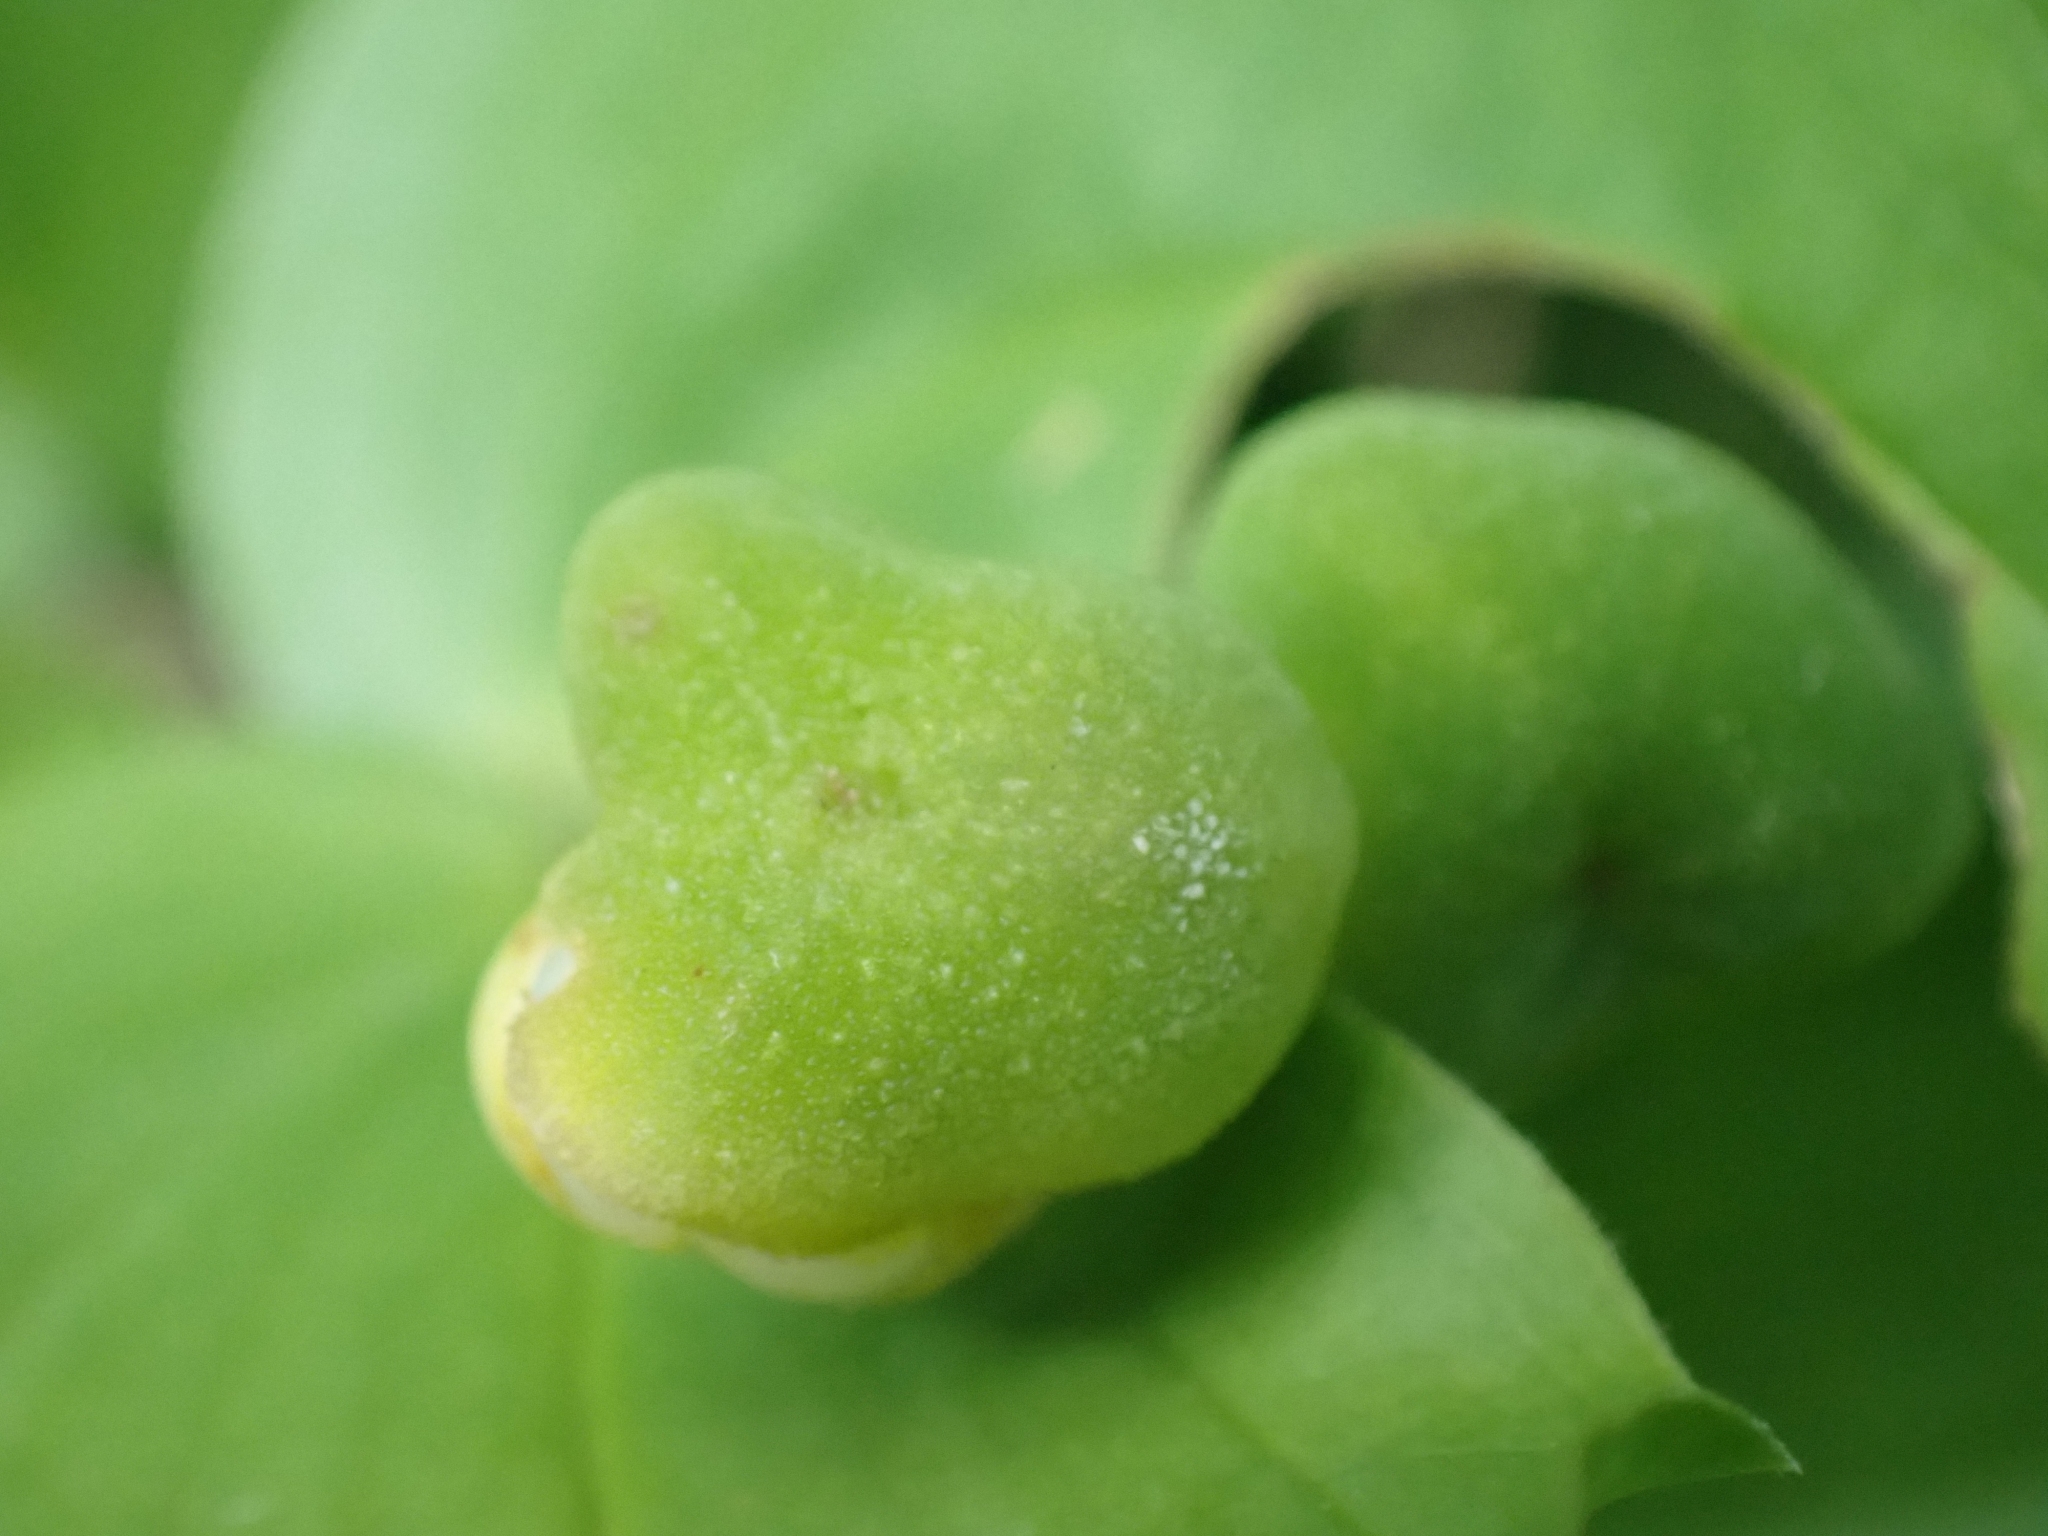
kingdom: Plantae
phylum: Tracheophyta
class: Liliopsida
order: Liliales
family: Liliaceae
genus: Prosartes
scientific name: Prosartes trachycarpa
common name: Rough-fruit fairy-bells
